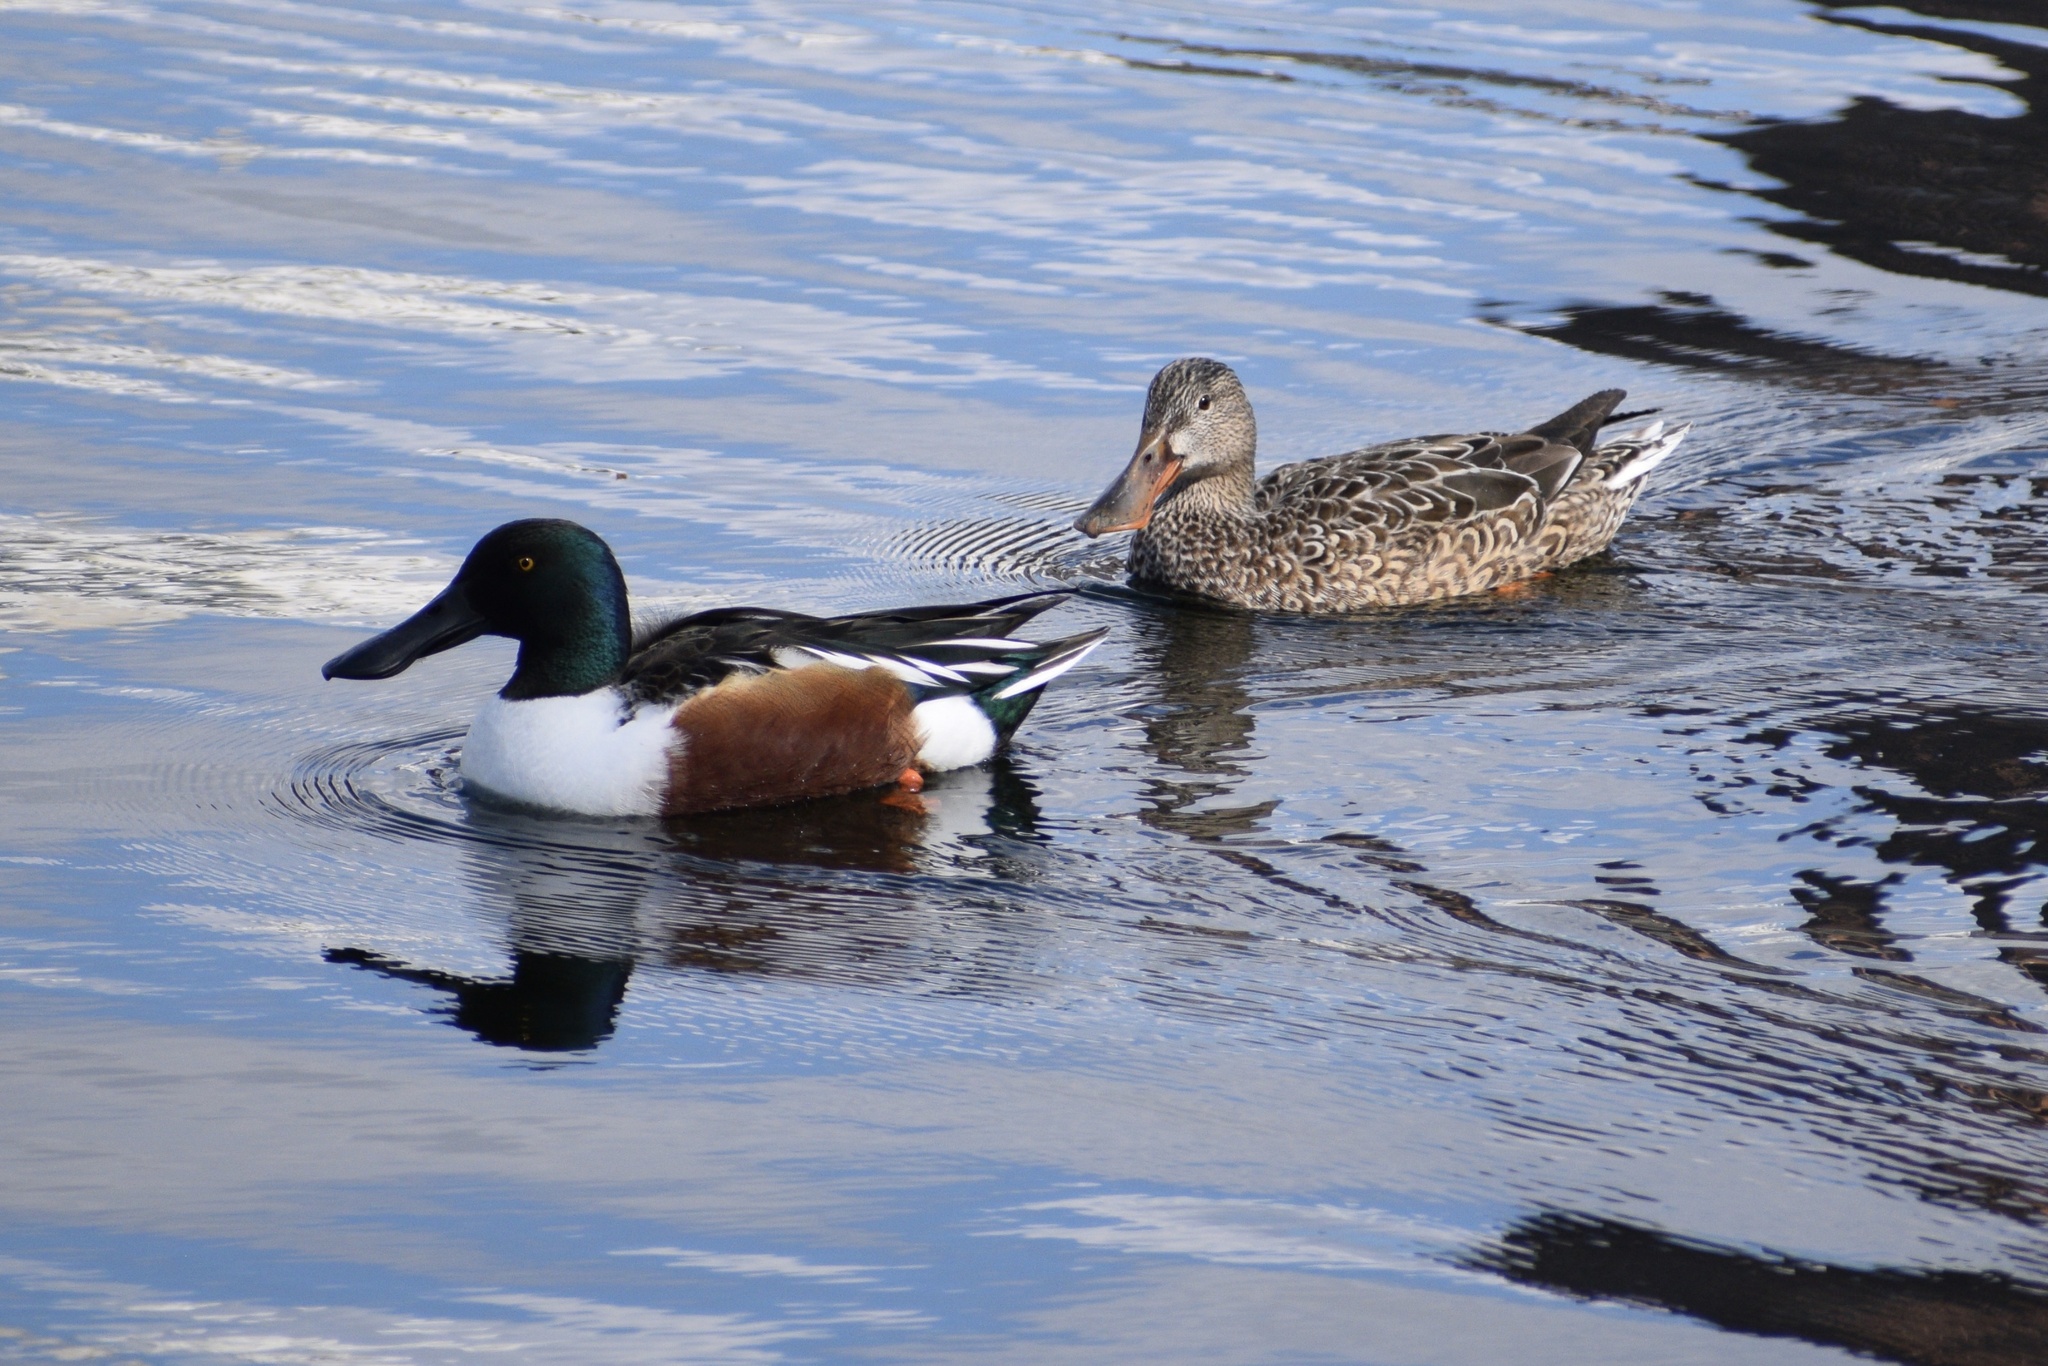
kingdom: Animalia
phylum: Chordata
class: Aves
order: Anseriformes
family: Anatidae
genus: Spatula
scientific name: Spatula clypeata
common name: Northern shoveler
